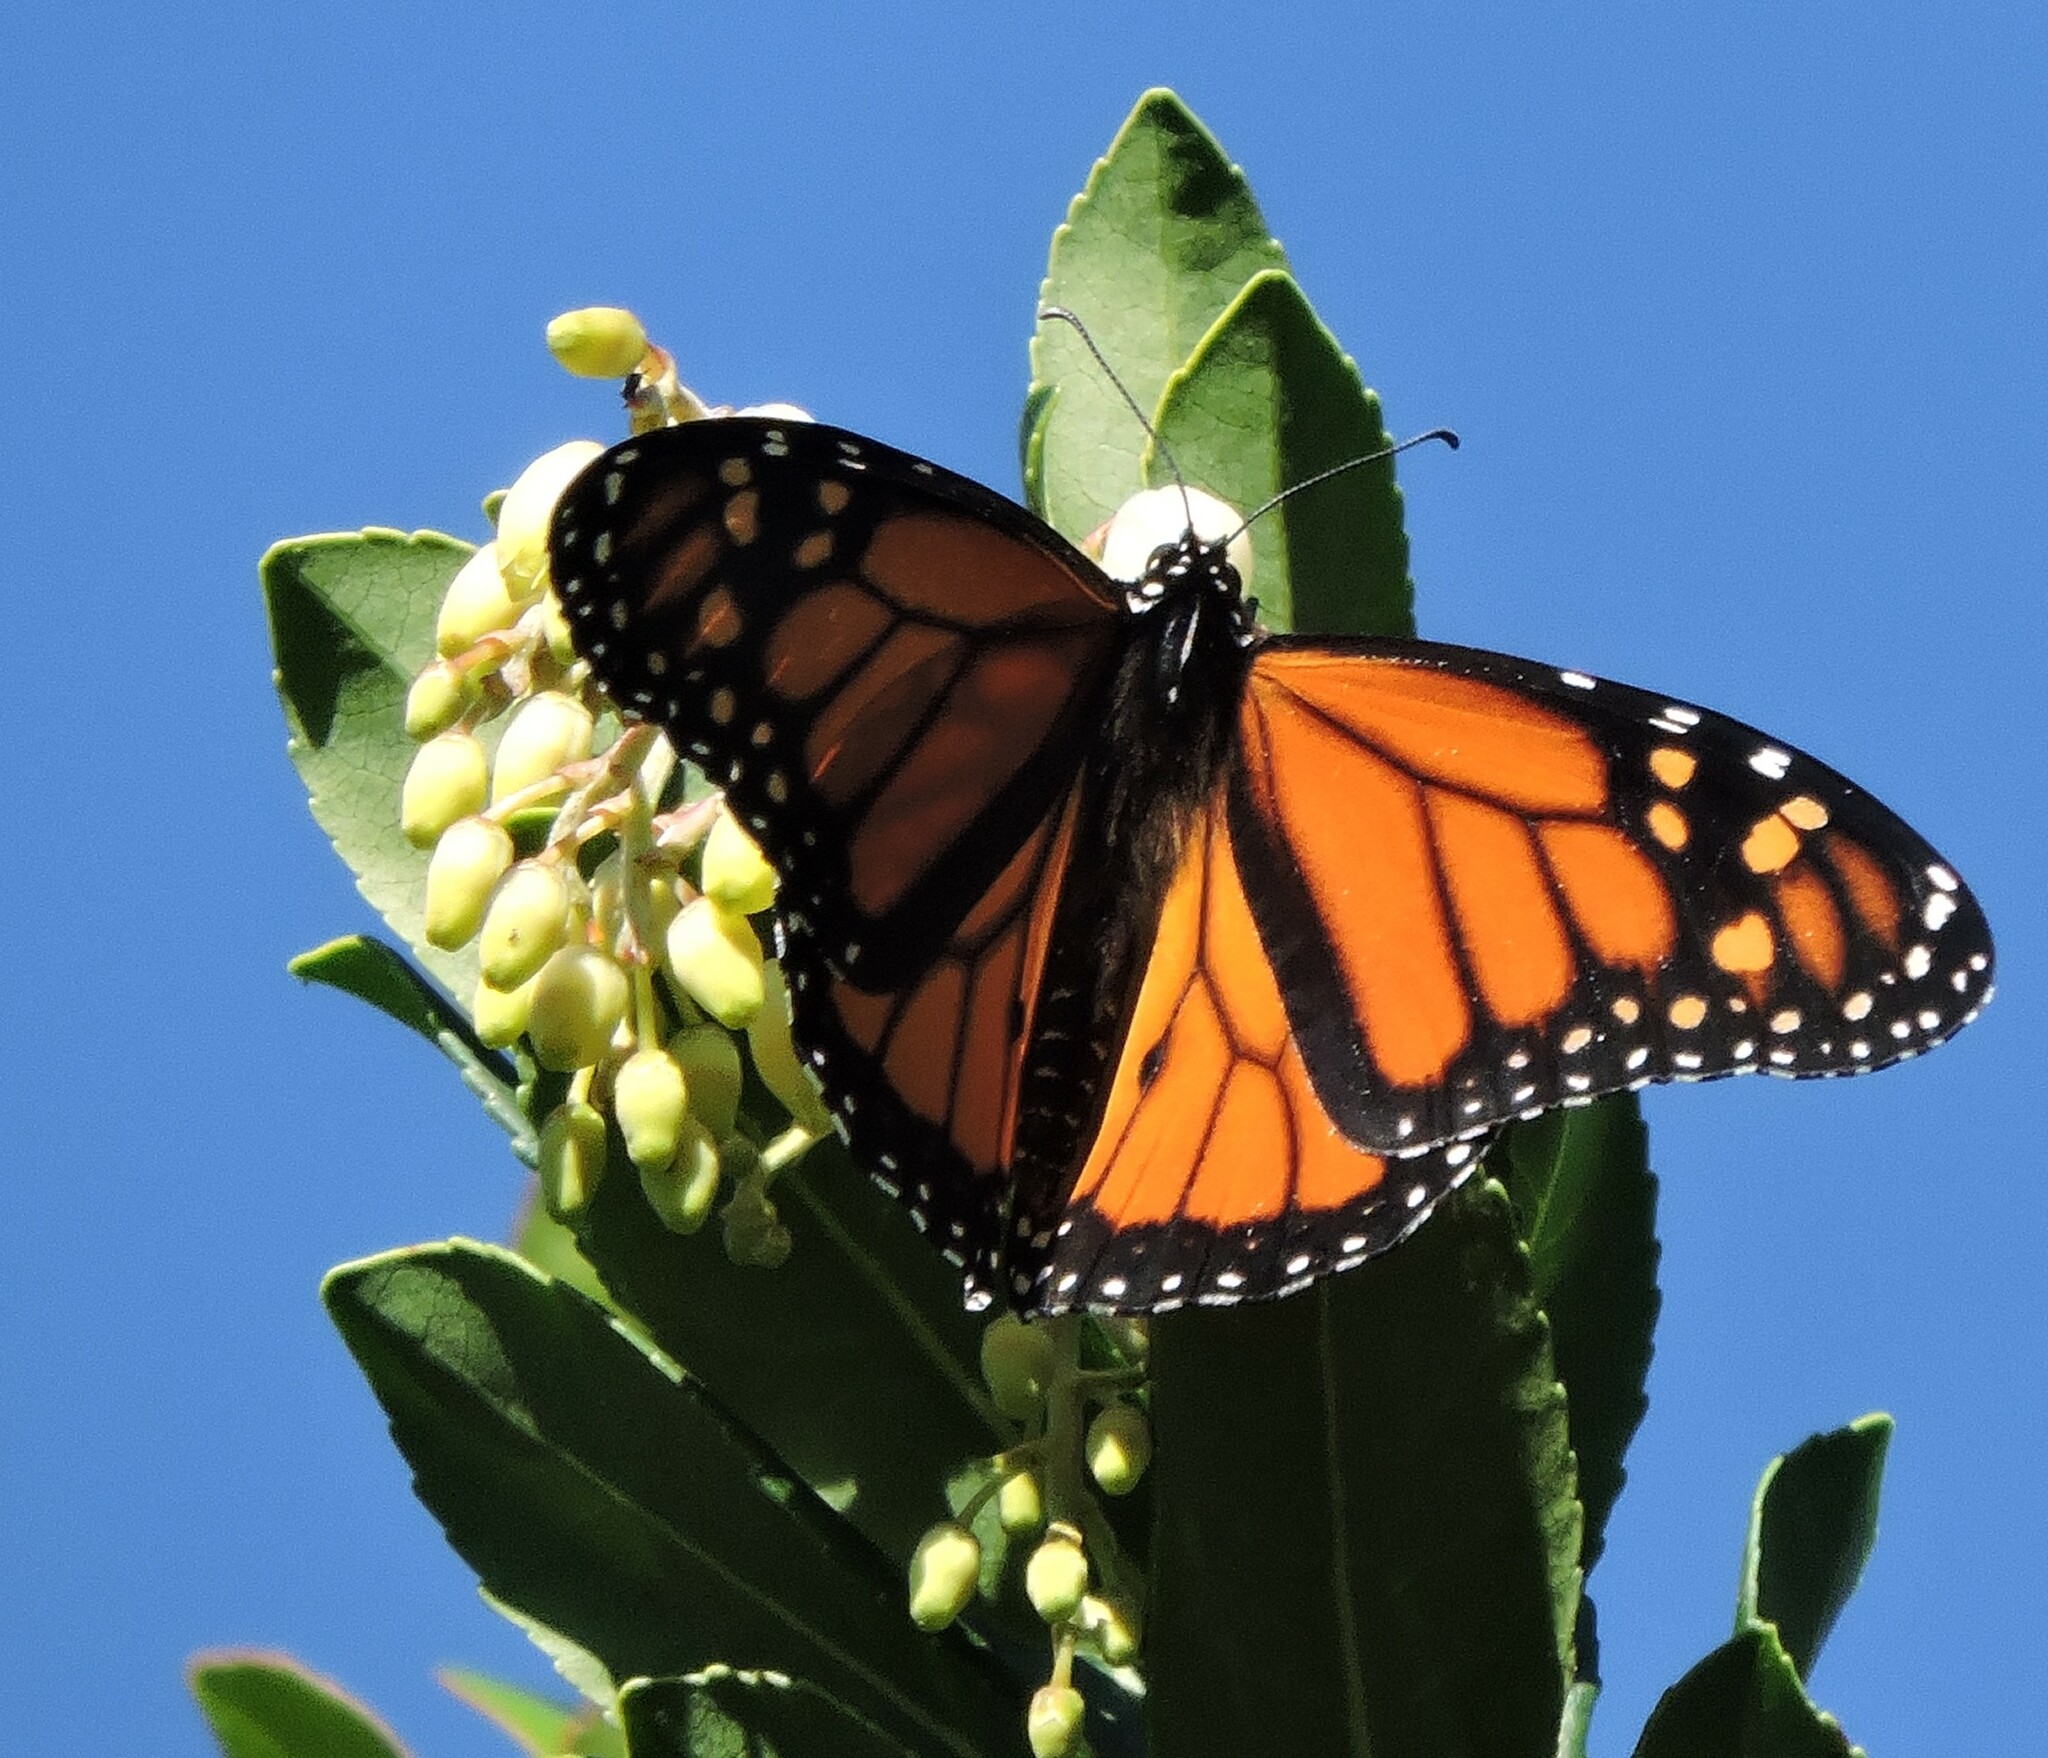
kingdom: Animalia
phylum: Arthropoda
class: Insecta
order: Lepidoptera
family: Nymphalidae
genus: Danaus
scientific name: Danaus plexippus
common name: Monarch
